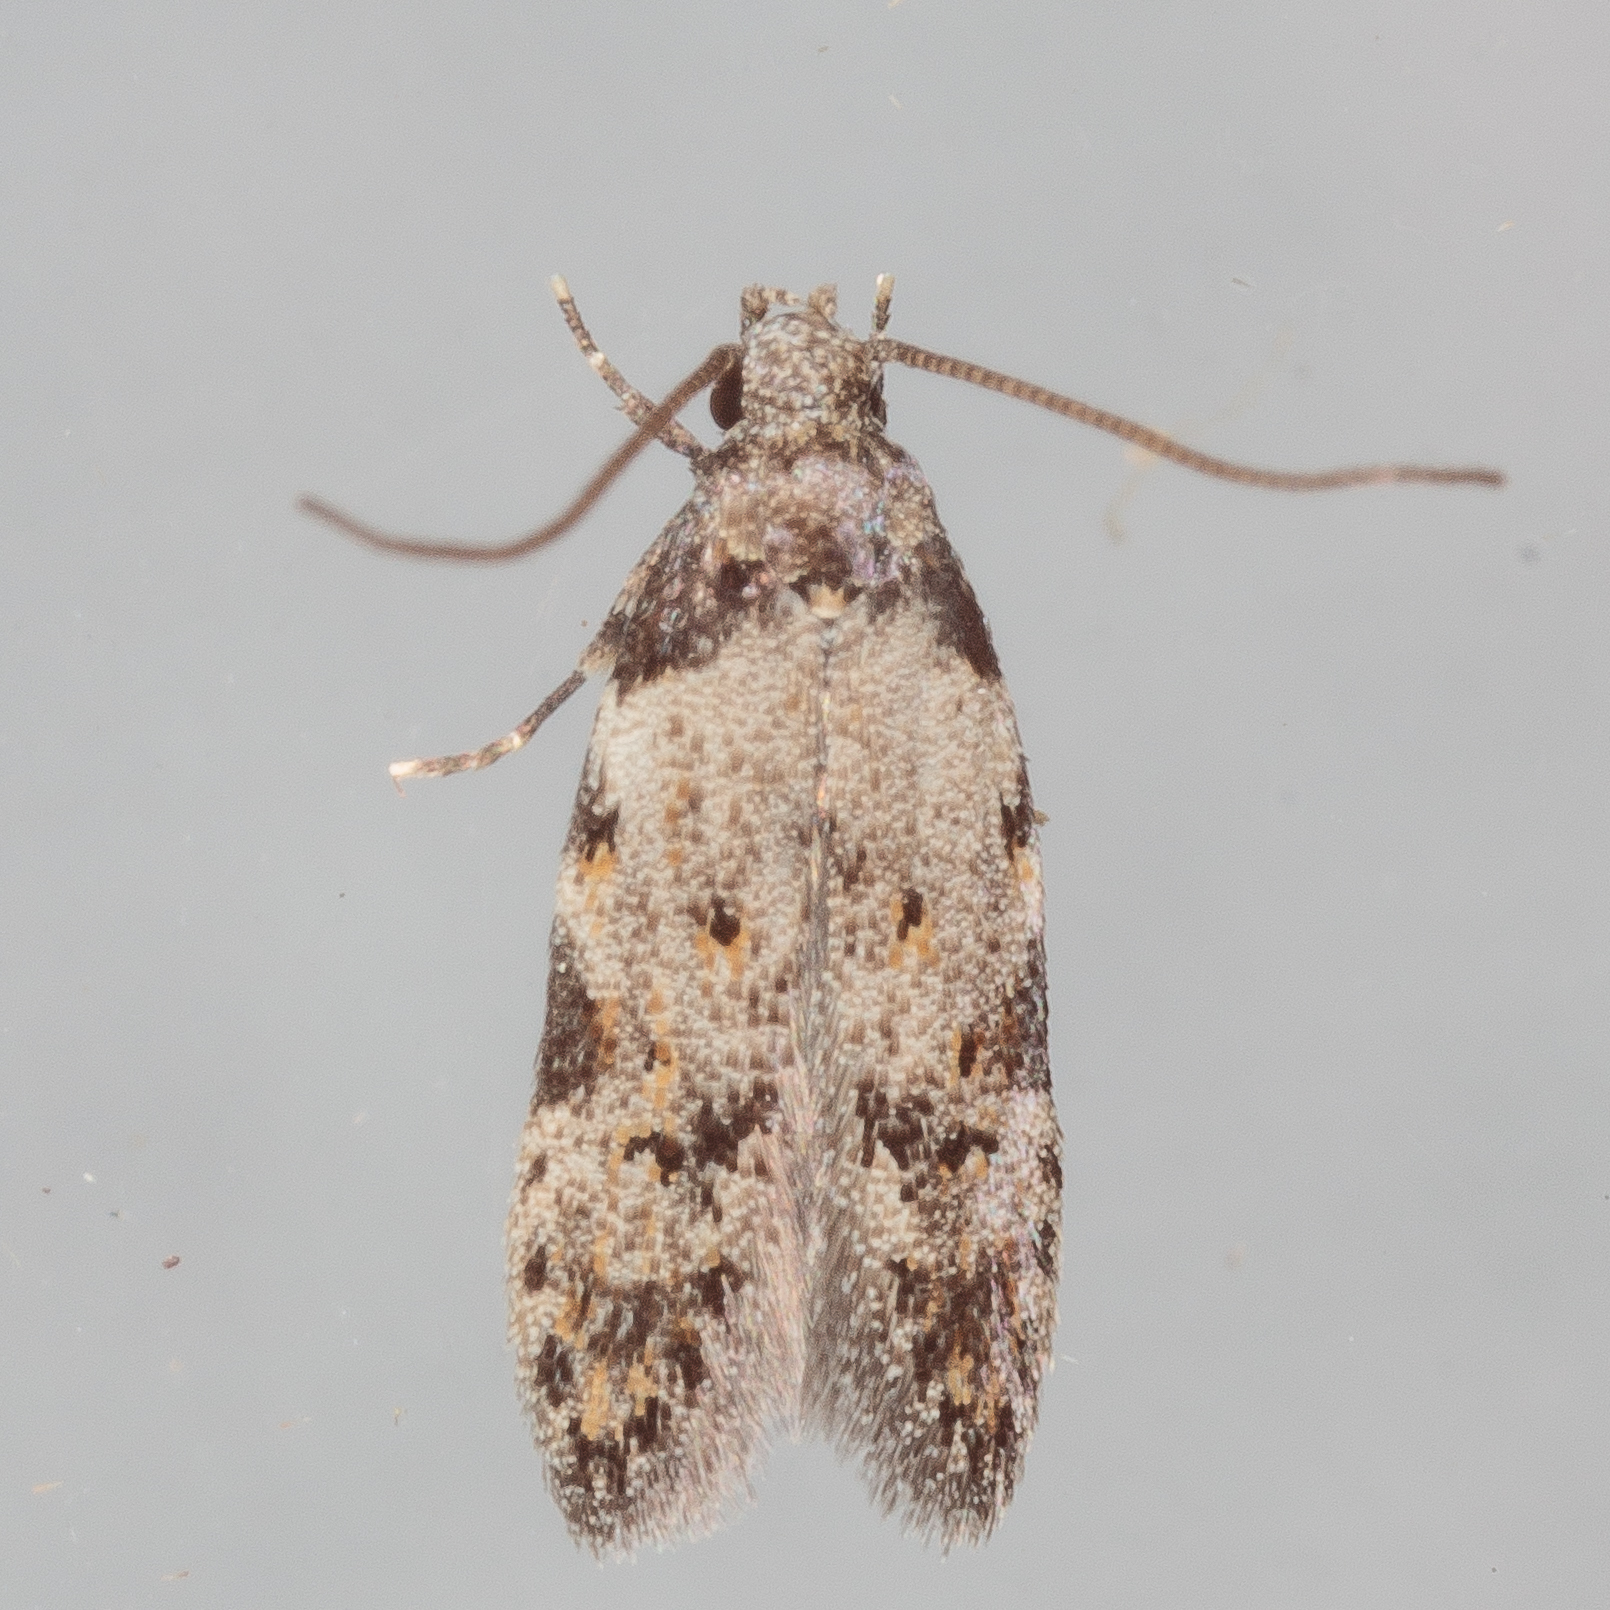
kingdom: Animalia
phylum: Arthropoda
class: Insecta
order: Lepidoptera
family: Autostichidae
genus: Taygete
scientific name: Taygete attributella
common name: Triangle-marked twirler moth
